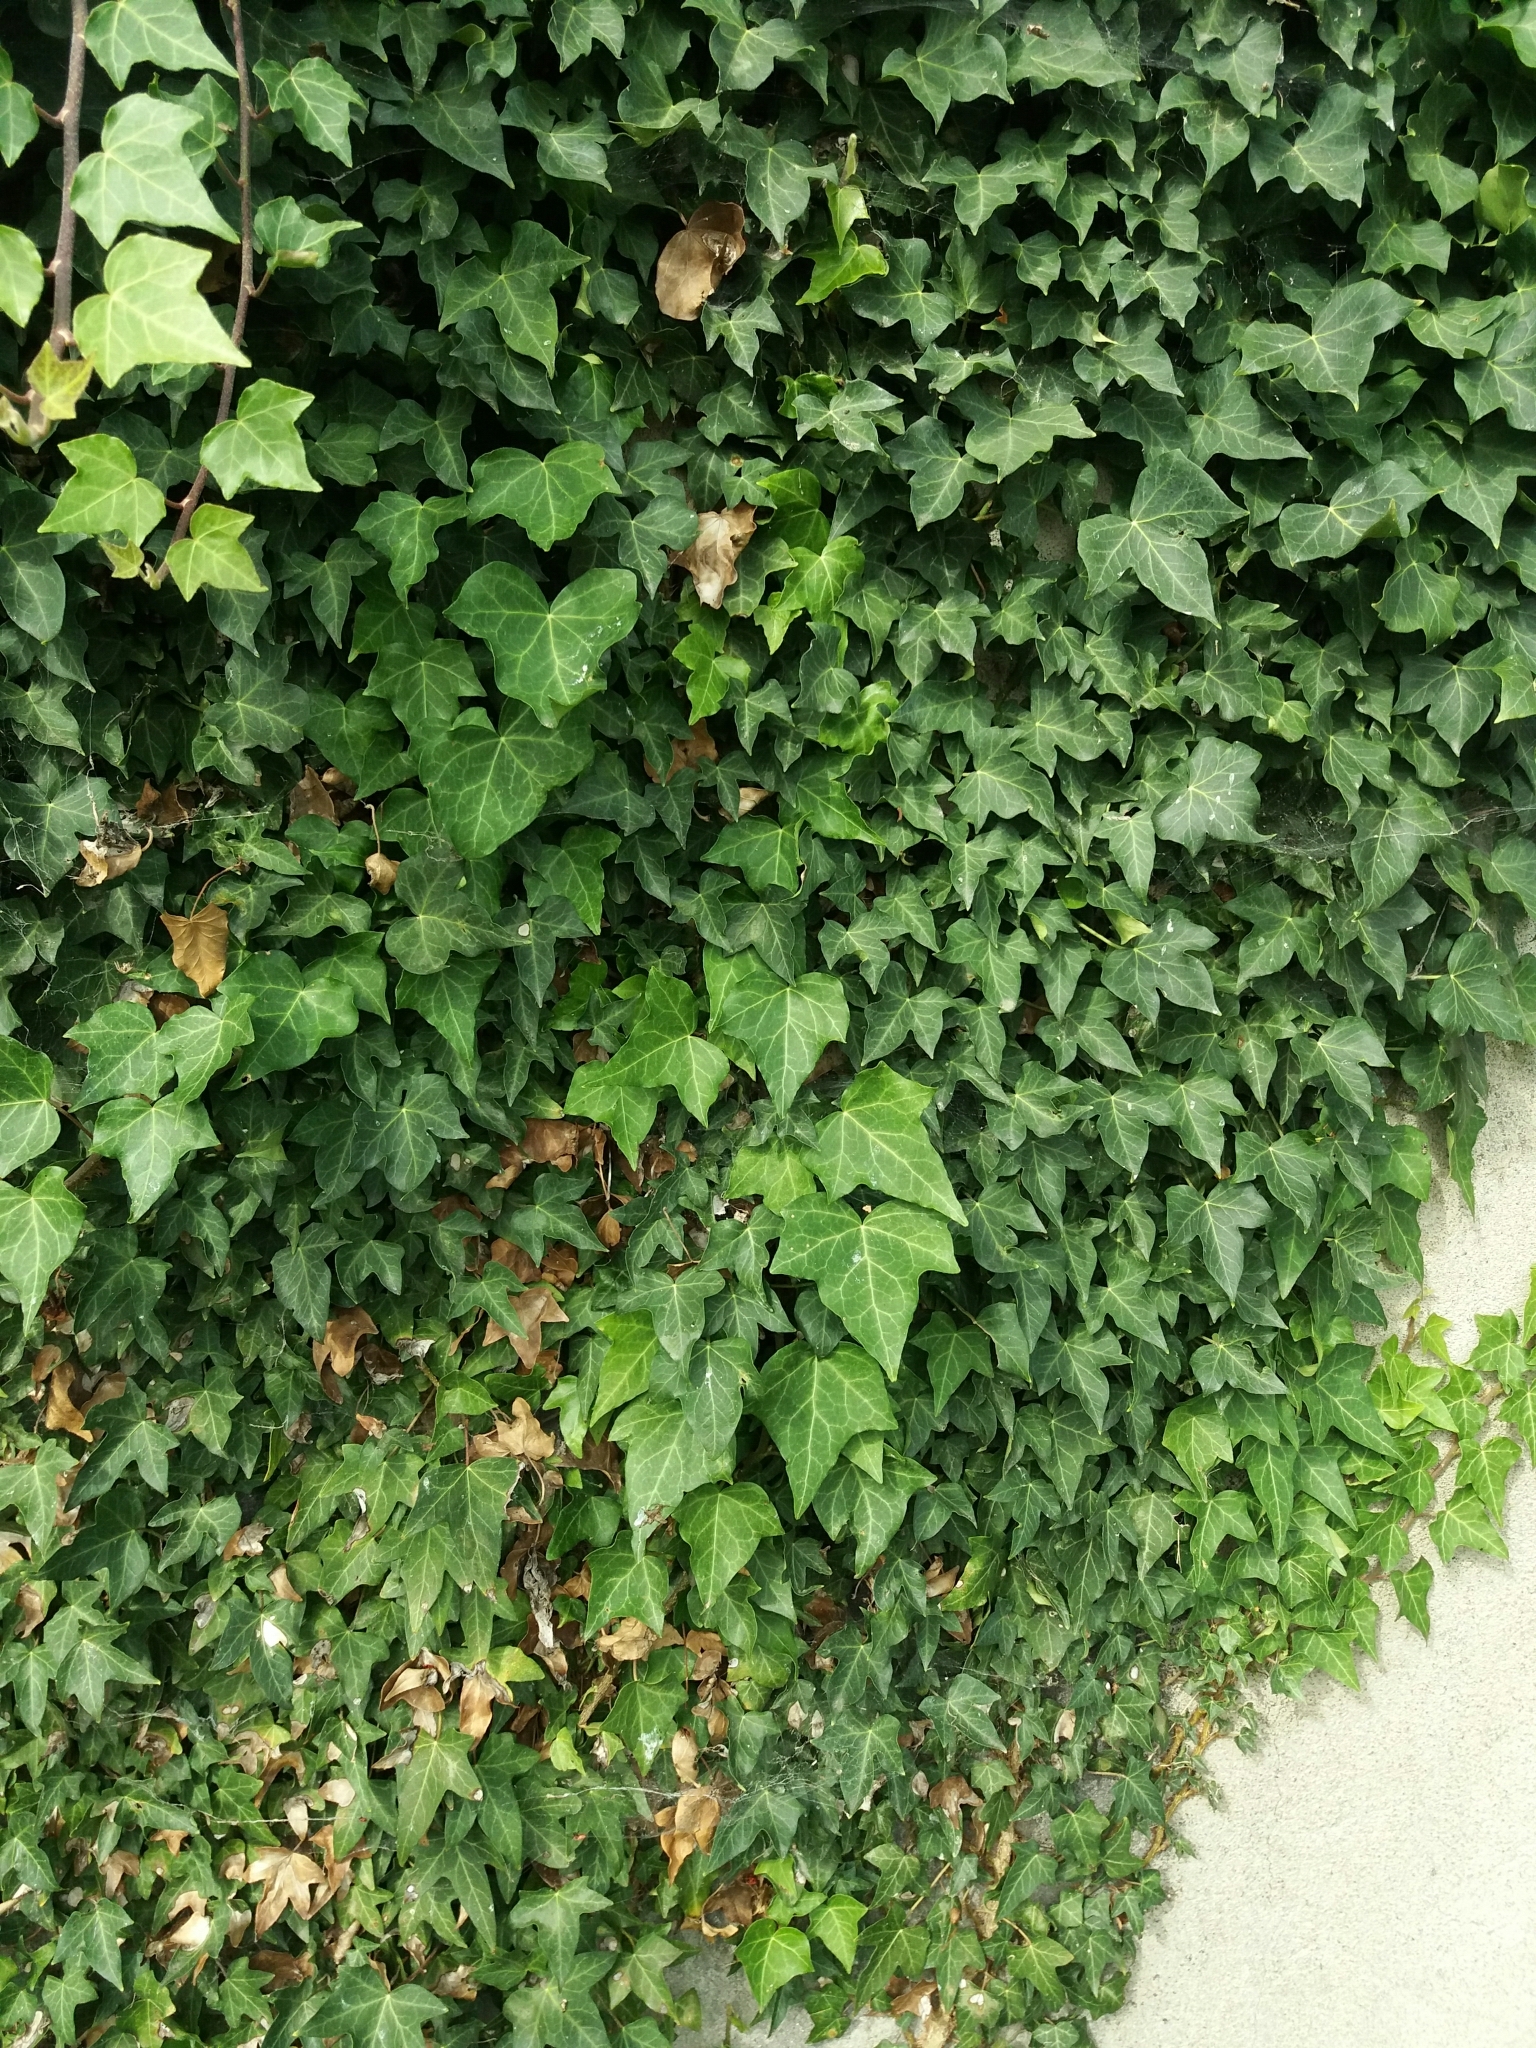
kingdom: Plantae
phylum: Tracheophyta
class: Magnoliopsida
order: Apiales
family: Araliaceae
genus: Hedera
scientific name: Hedera helix
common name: Ivy
